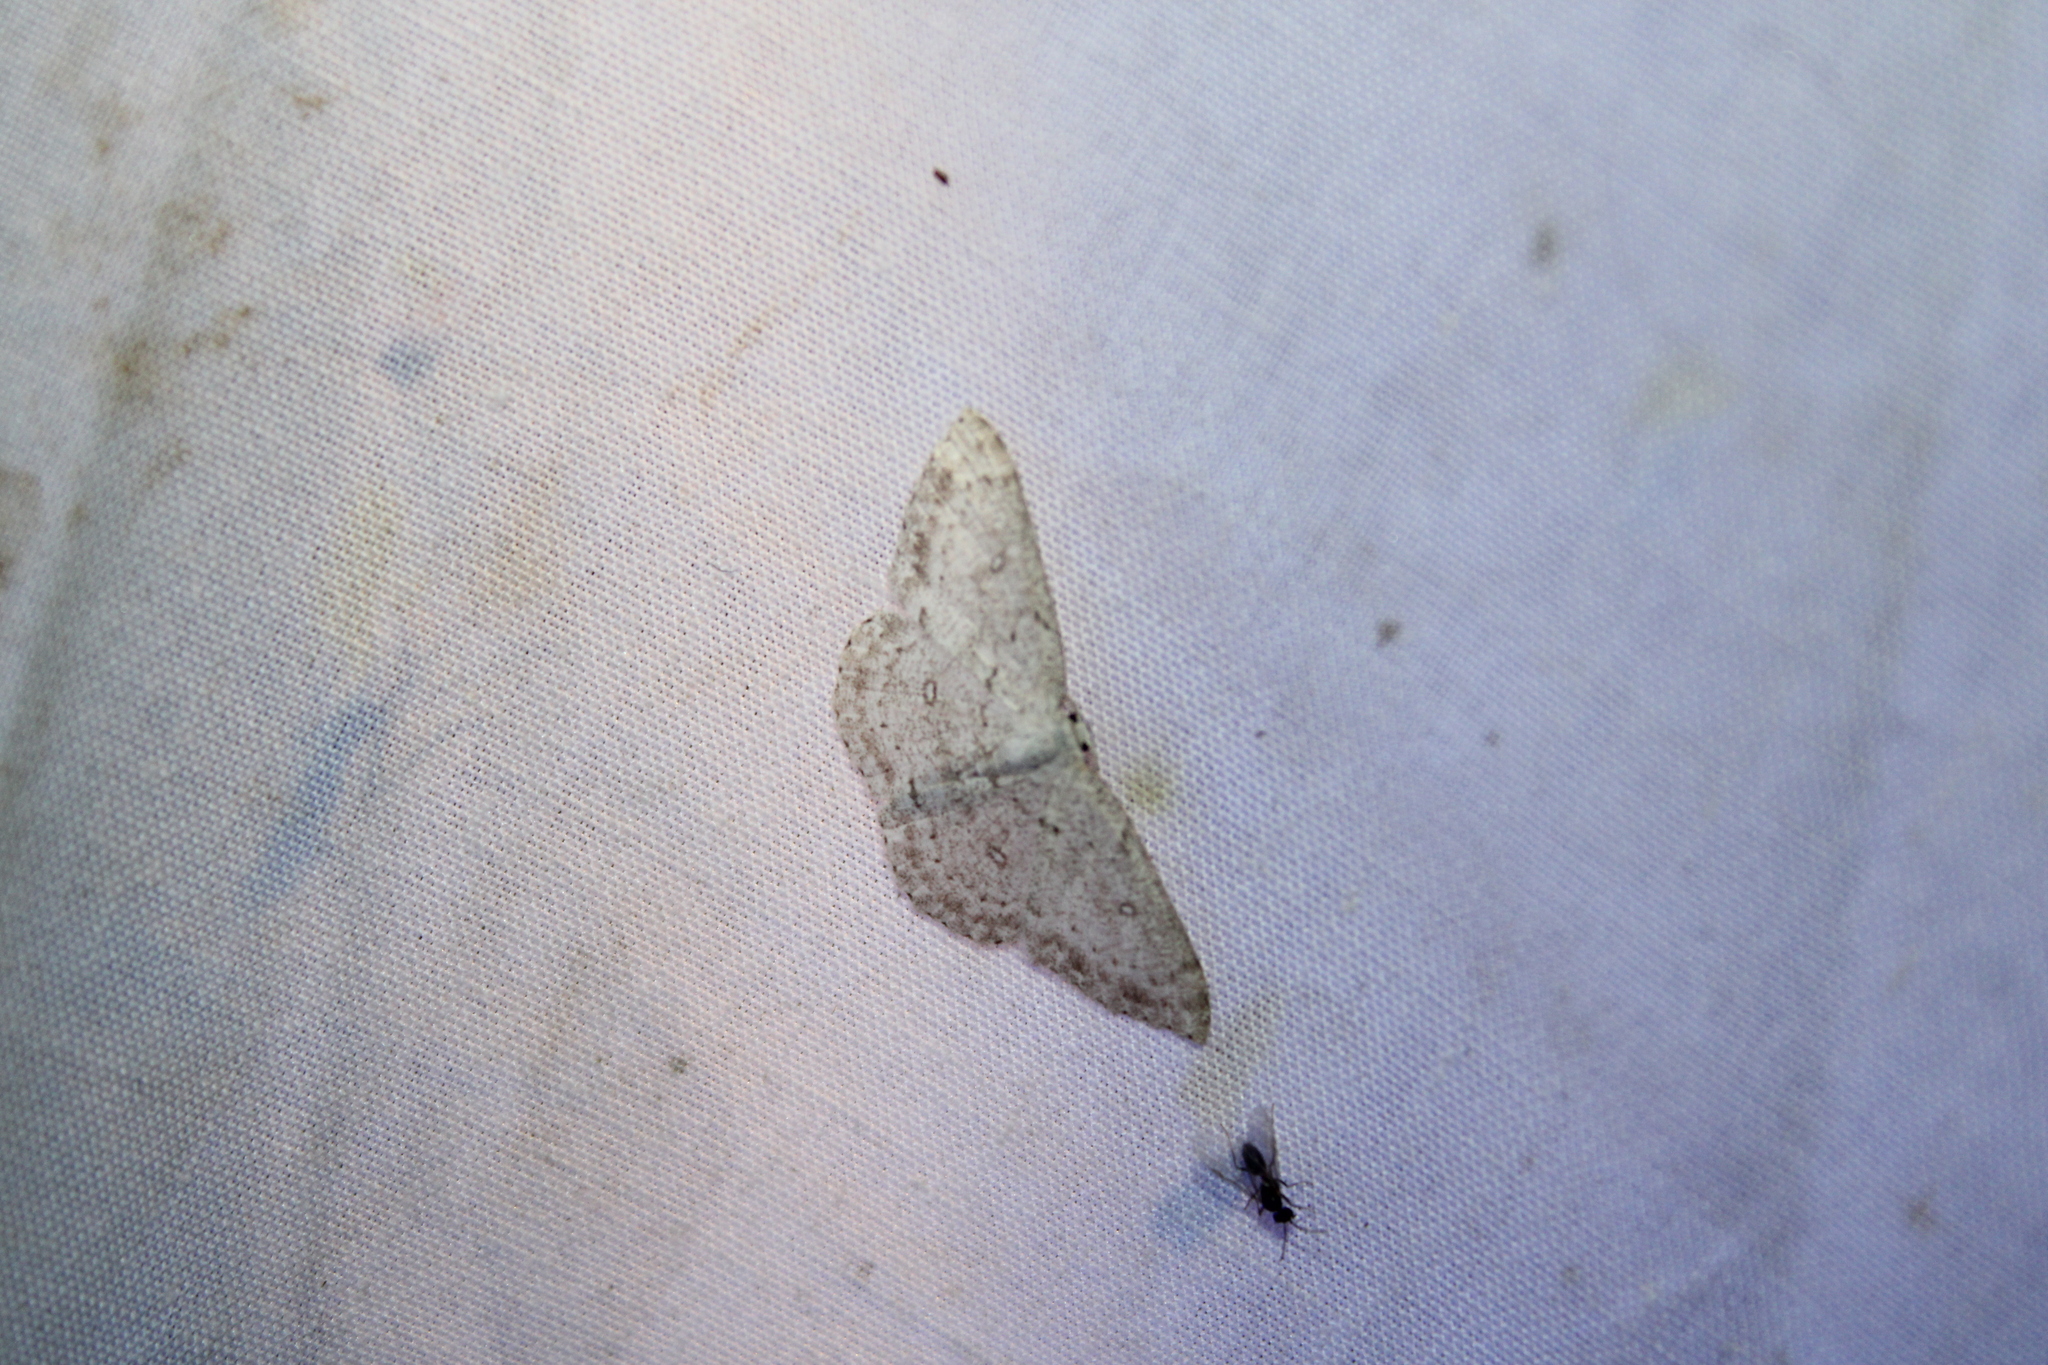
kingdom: Animalia
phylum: Arthropoda
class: Insecta
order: Lepidoptera
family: Geometridae
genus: Cyclophora
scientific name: Cyclophora pendulinaria
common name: Sweet fern geometer
